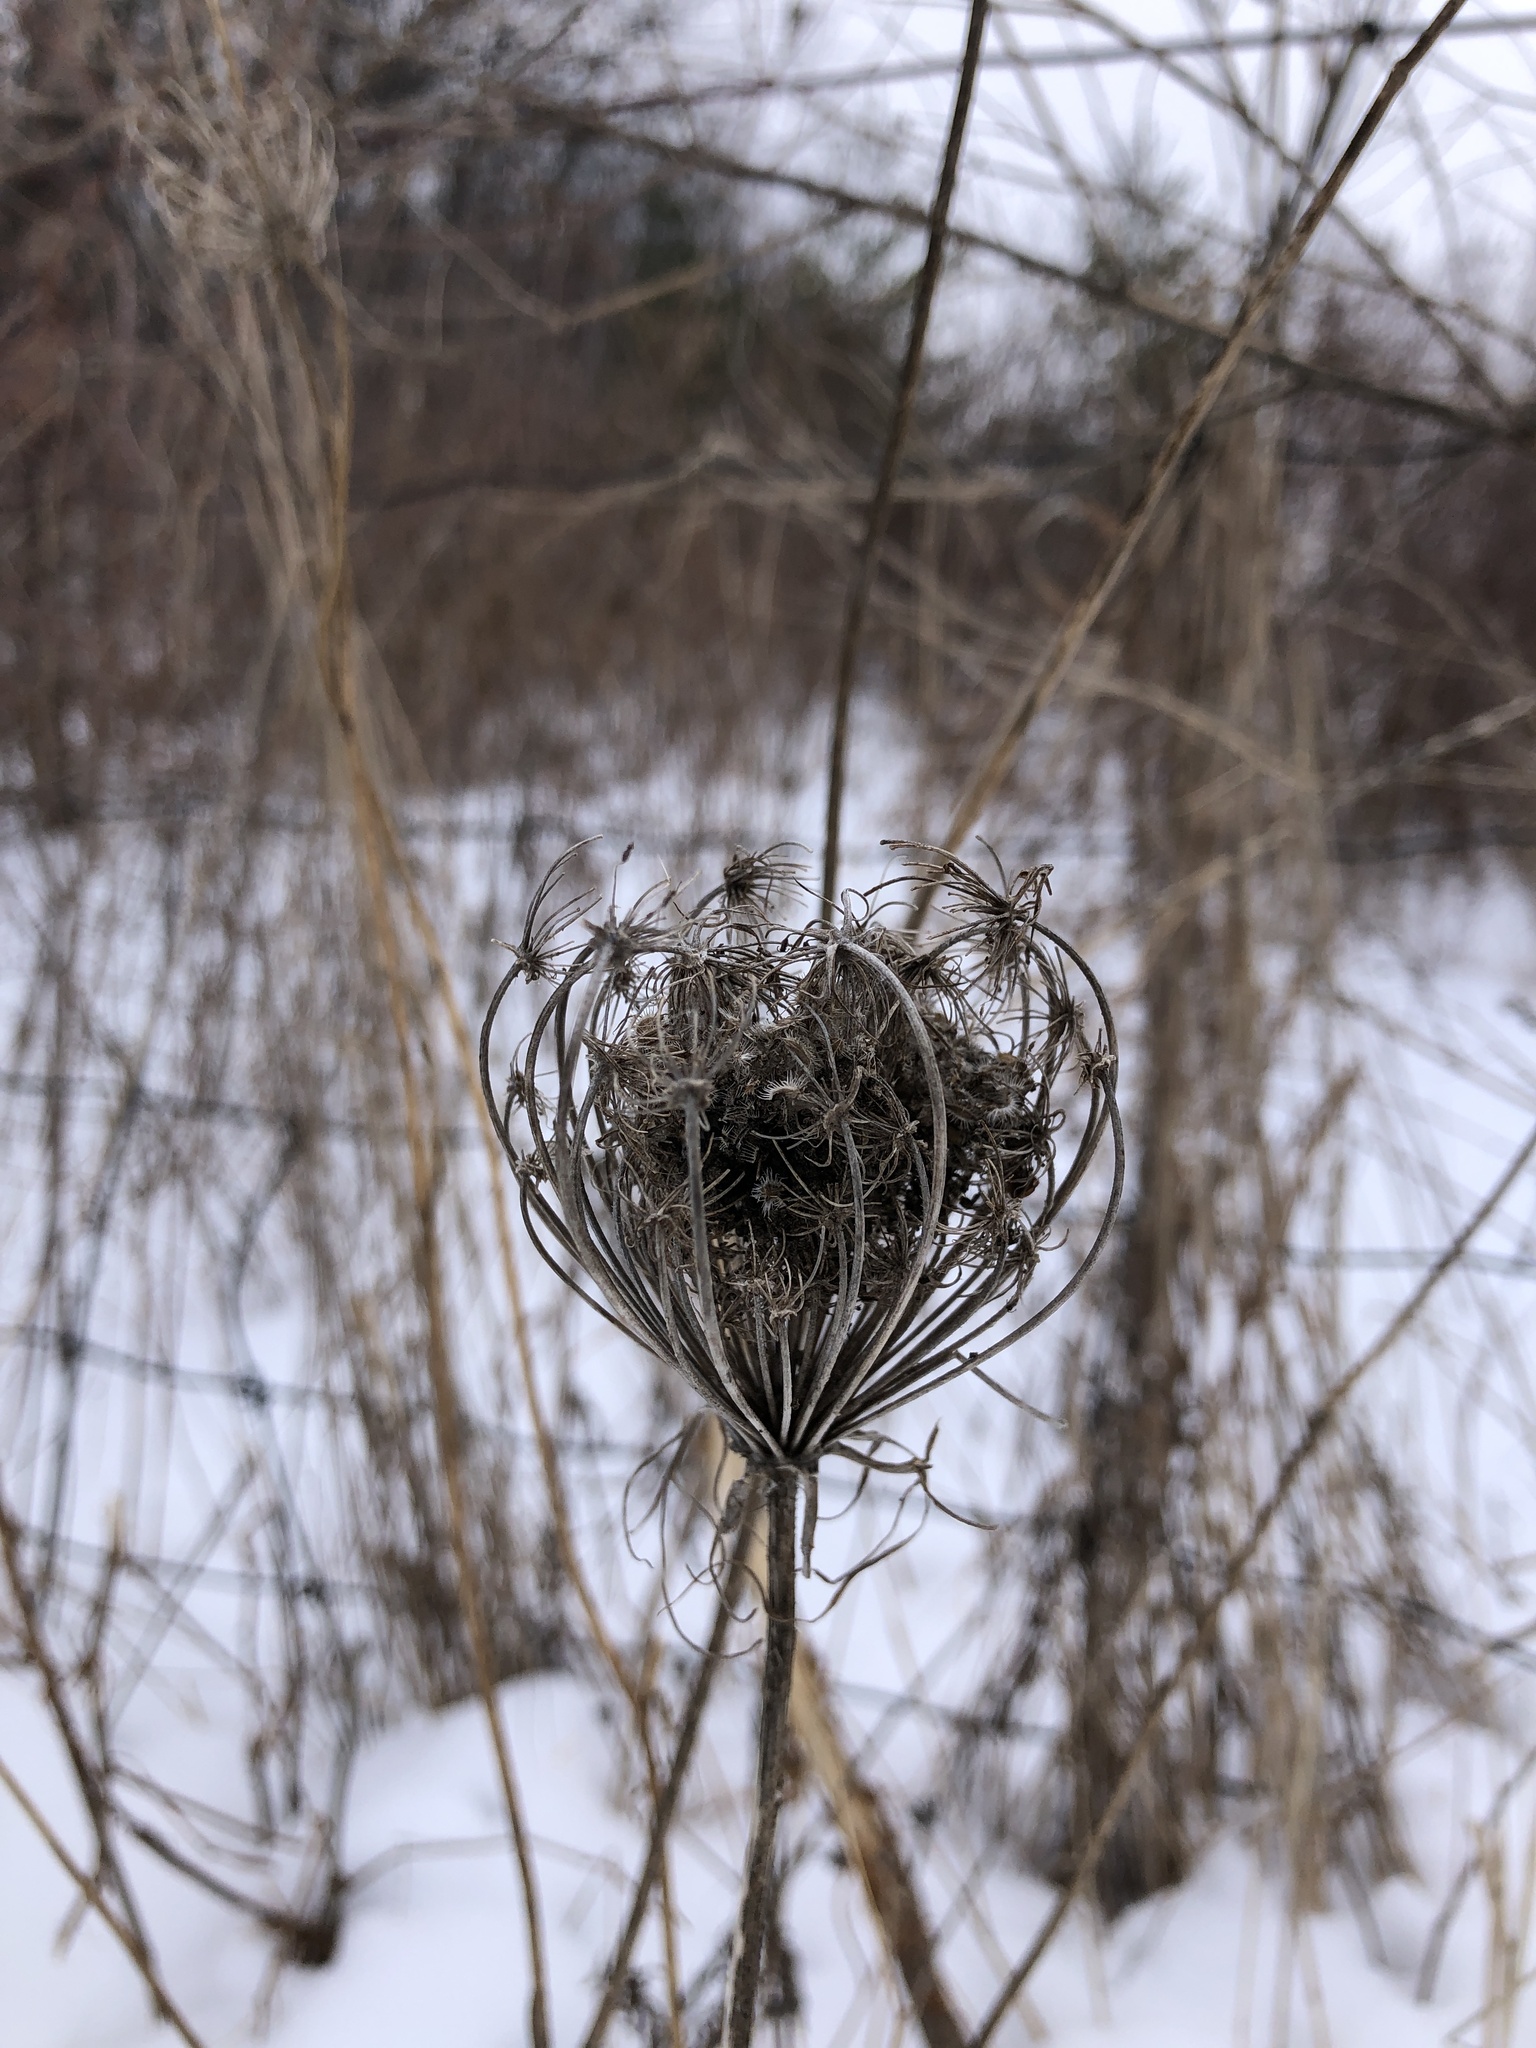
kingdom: Plantae
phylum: Tracheophyta
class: Magnoliopsida
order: Apiales
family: Apiaceae
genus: Daucus
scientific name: Daucus carota
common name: Wild carrot
